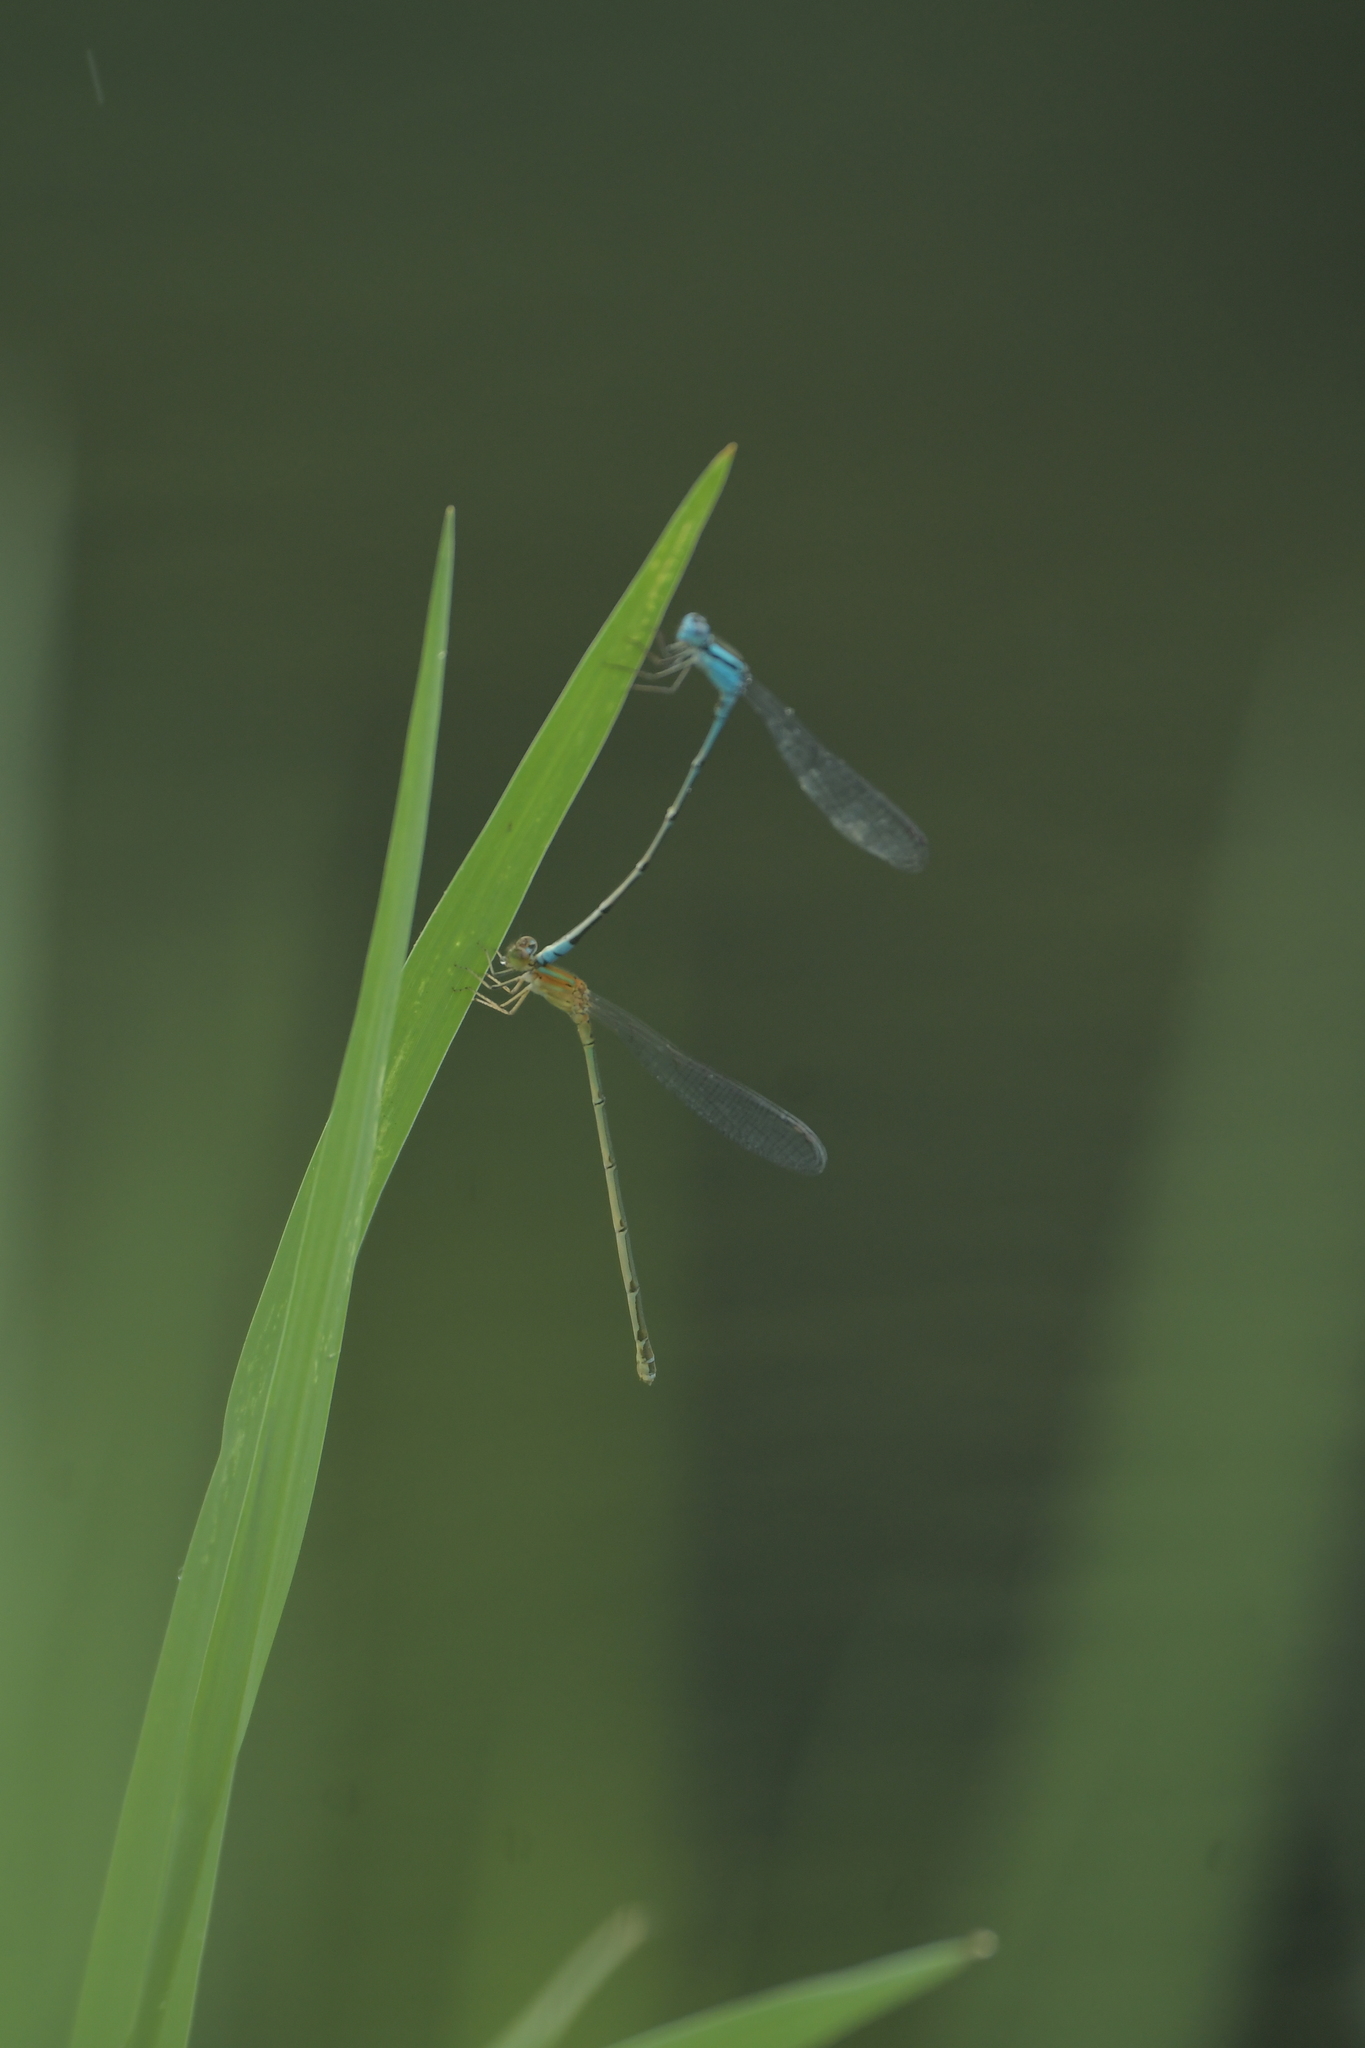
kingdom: Animalia
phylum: Arthropoda
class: Insecta
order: Odonata
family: Coenagrionidae
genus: Pseudagrion
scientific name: Pseudagrion microcephalum
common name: Blue riverdamsel
